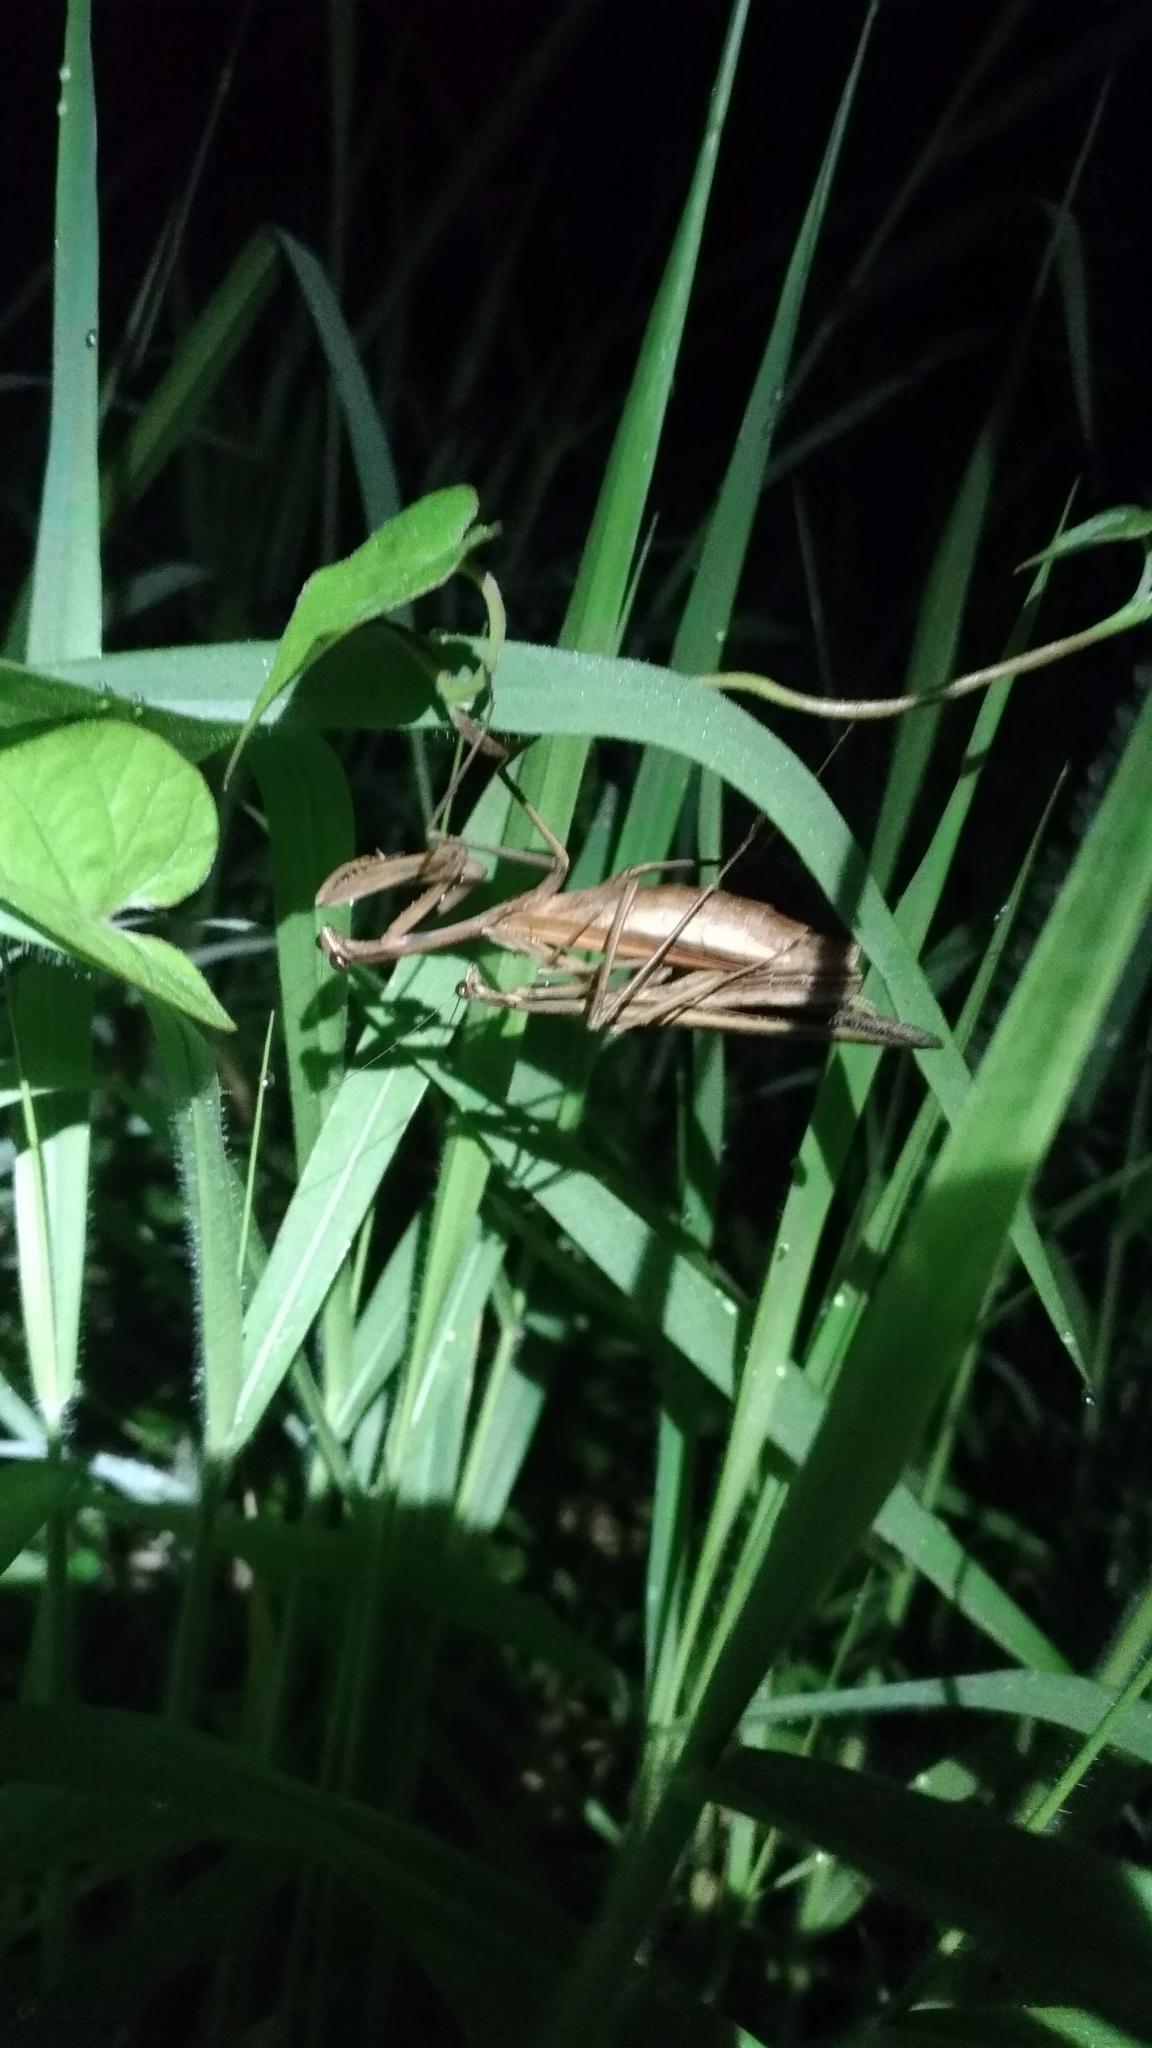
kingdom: Animalia
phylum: Arthropoda
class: Insecta
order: Mantodea
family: Mantidae
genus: Statilia
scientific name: Statilia nemoralis
